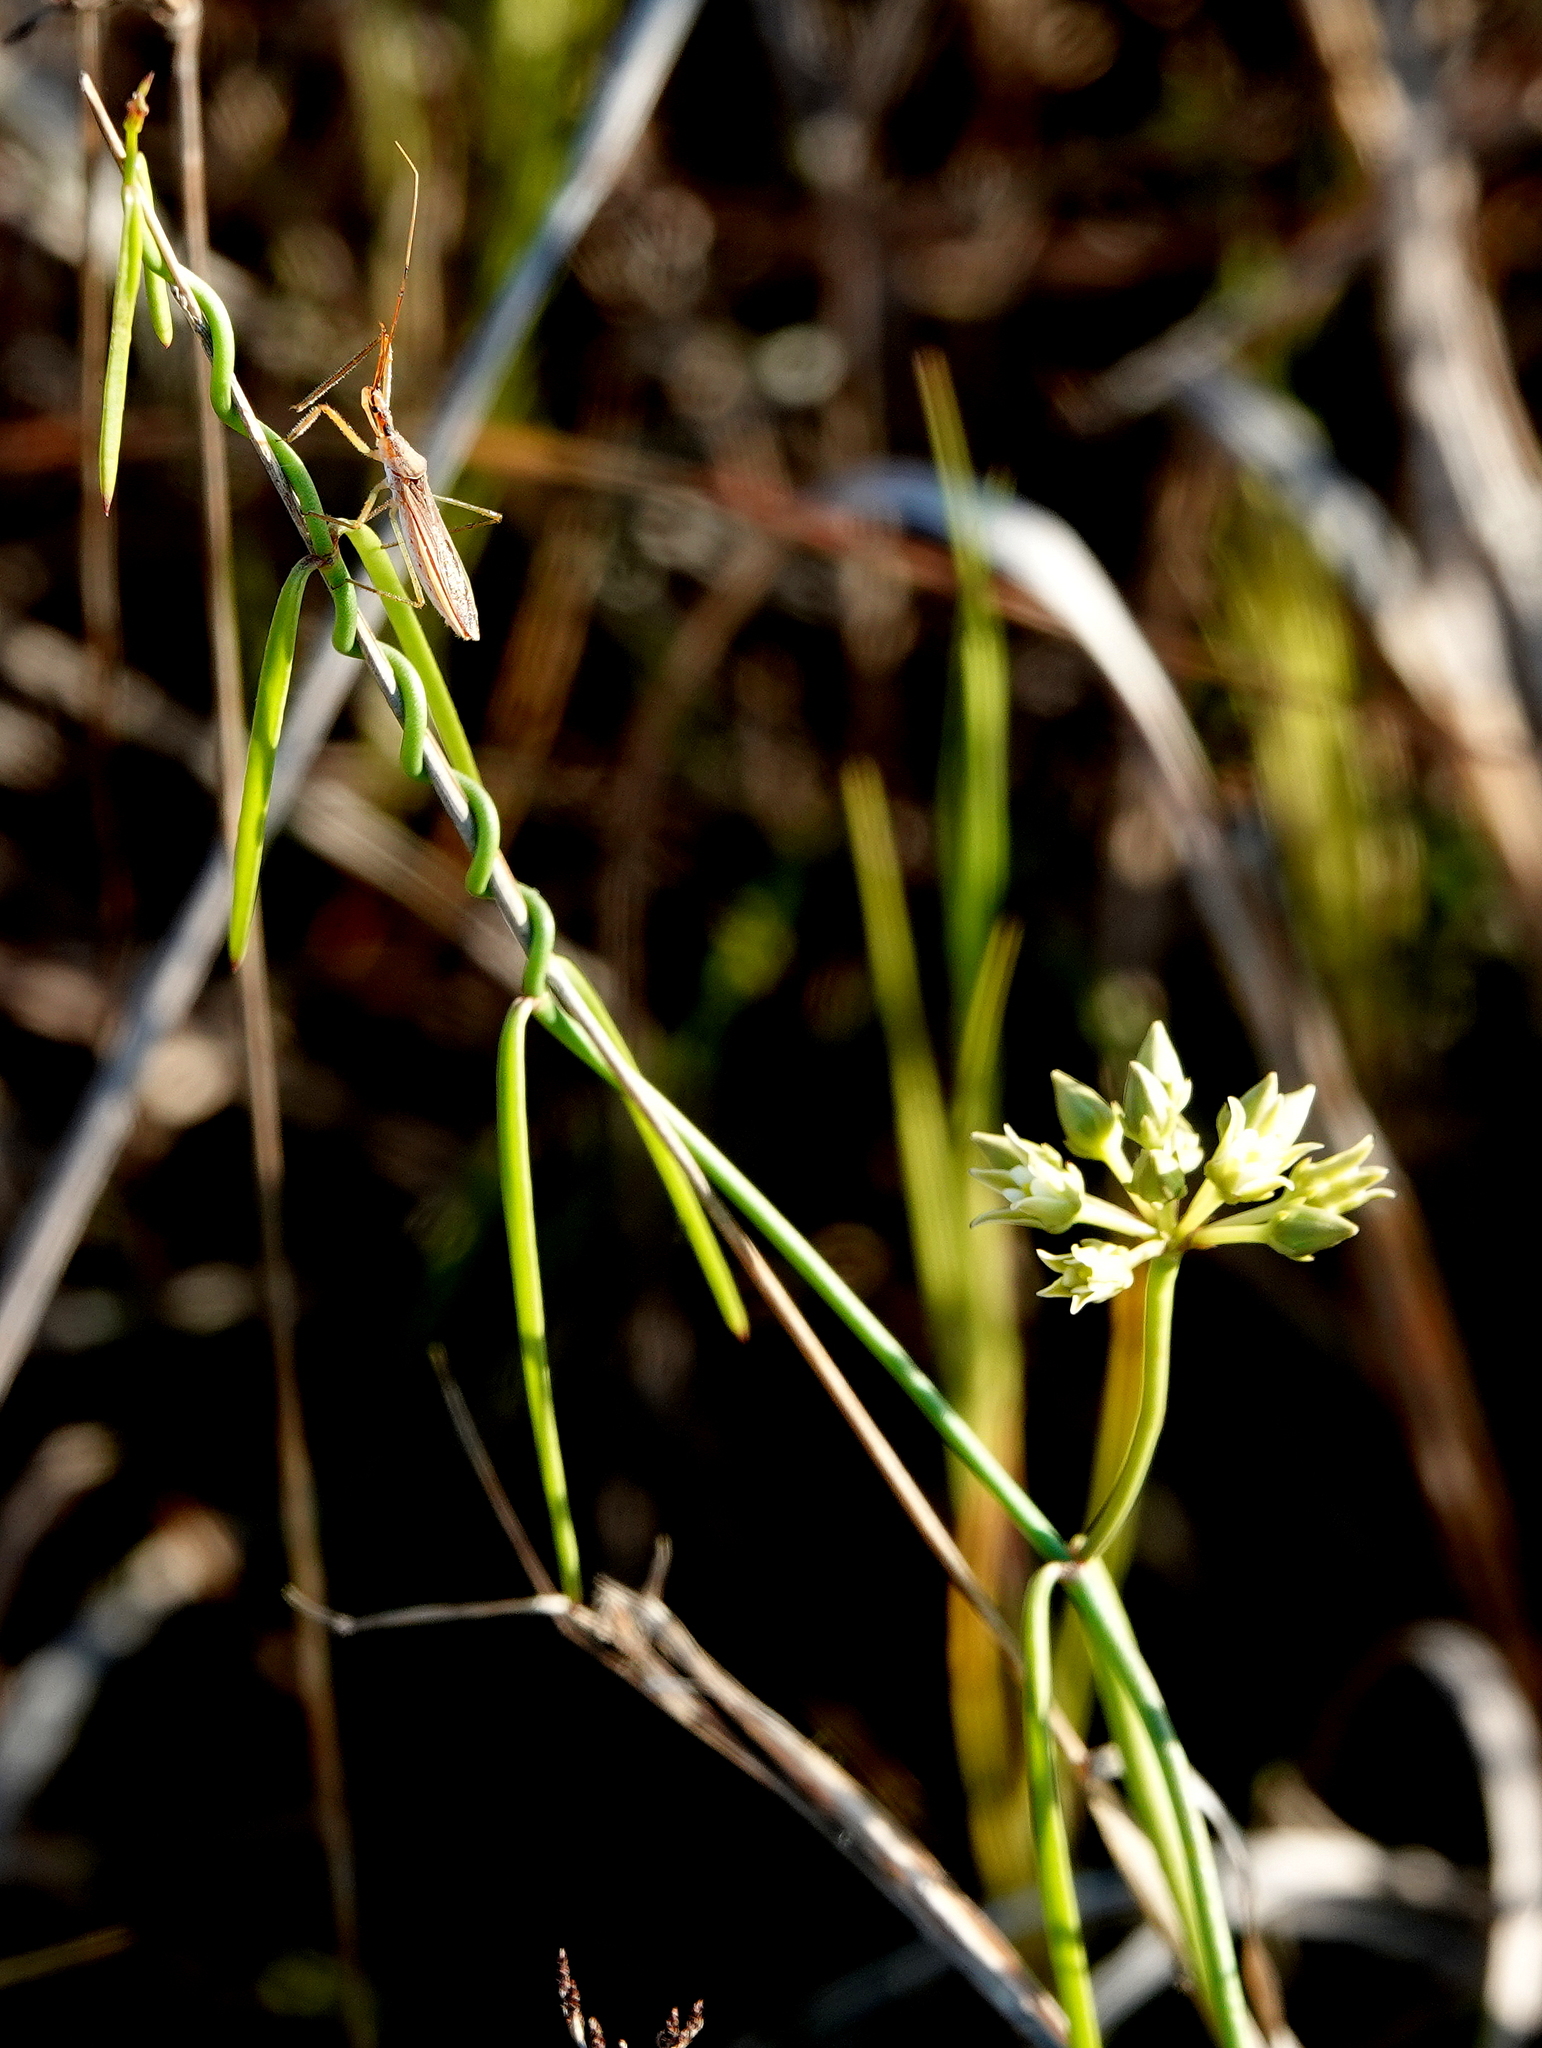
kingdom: Plantae
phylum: Tracheophyta
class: Magnoliopsida
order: Gentianales
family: Apocynaceae
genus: Pattalias
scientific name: Pattalias
